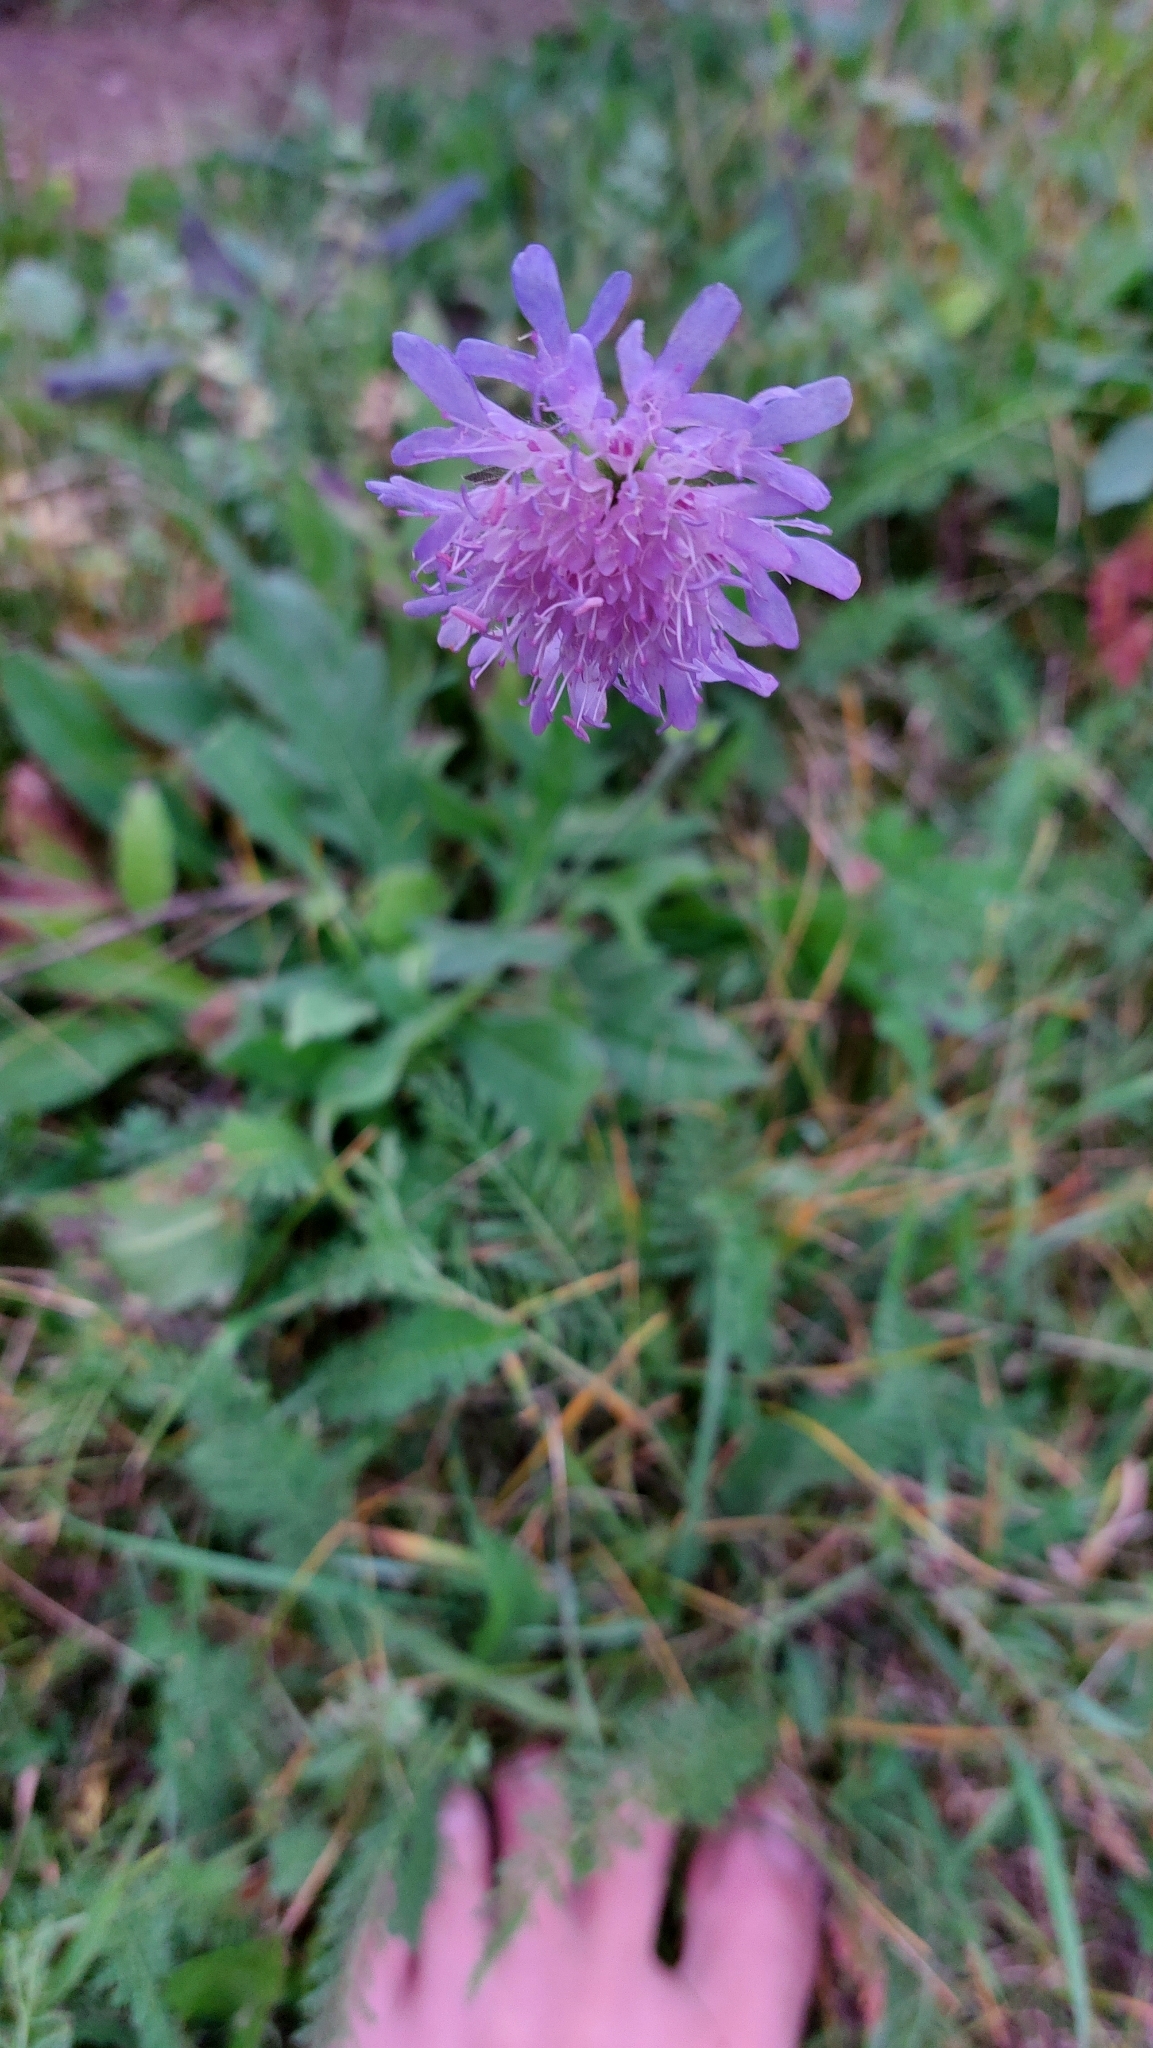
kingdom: Plantae
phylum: Tracheophyta
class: Magnoliopsida
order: Dipsacales
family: Caprifoliaceae
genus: Knautia
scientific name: Knautia arvensis
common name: Field scabiosa
